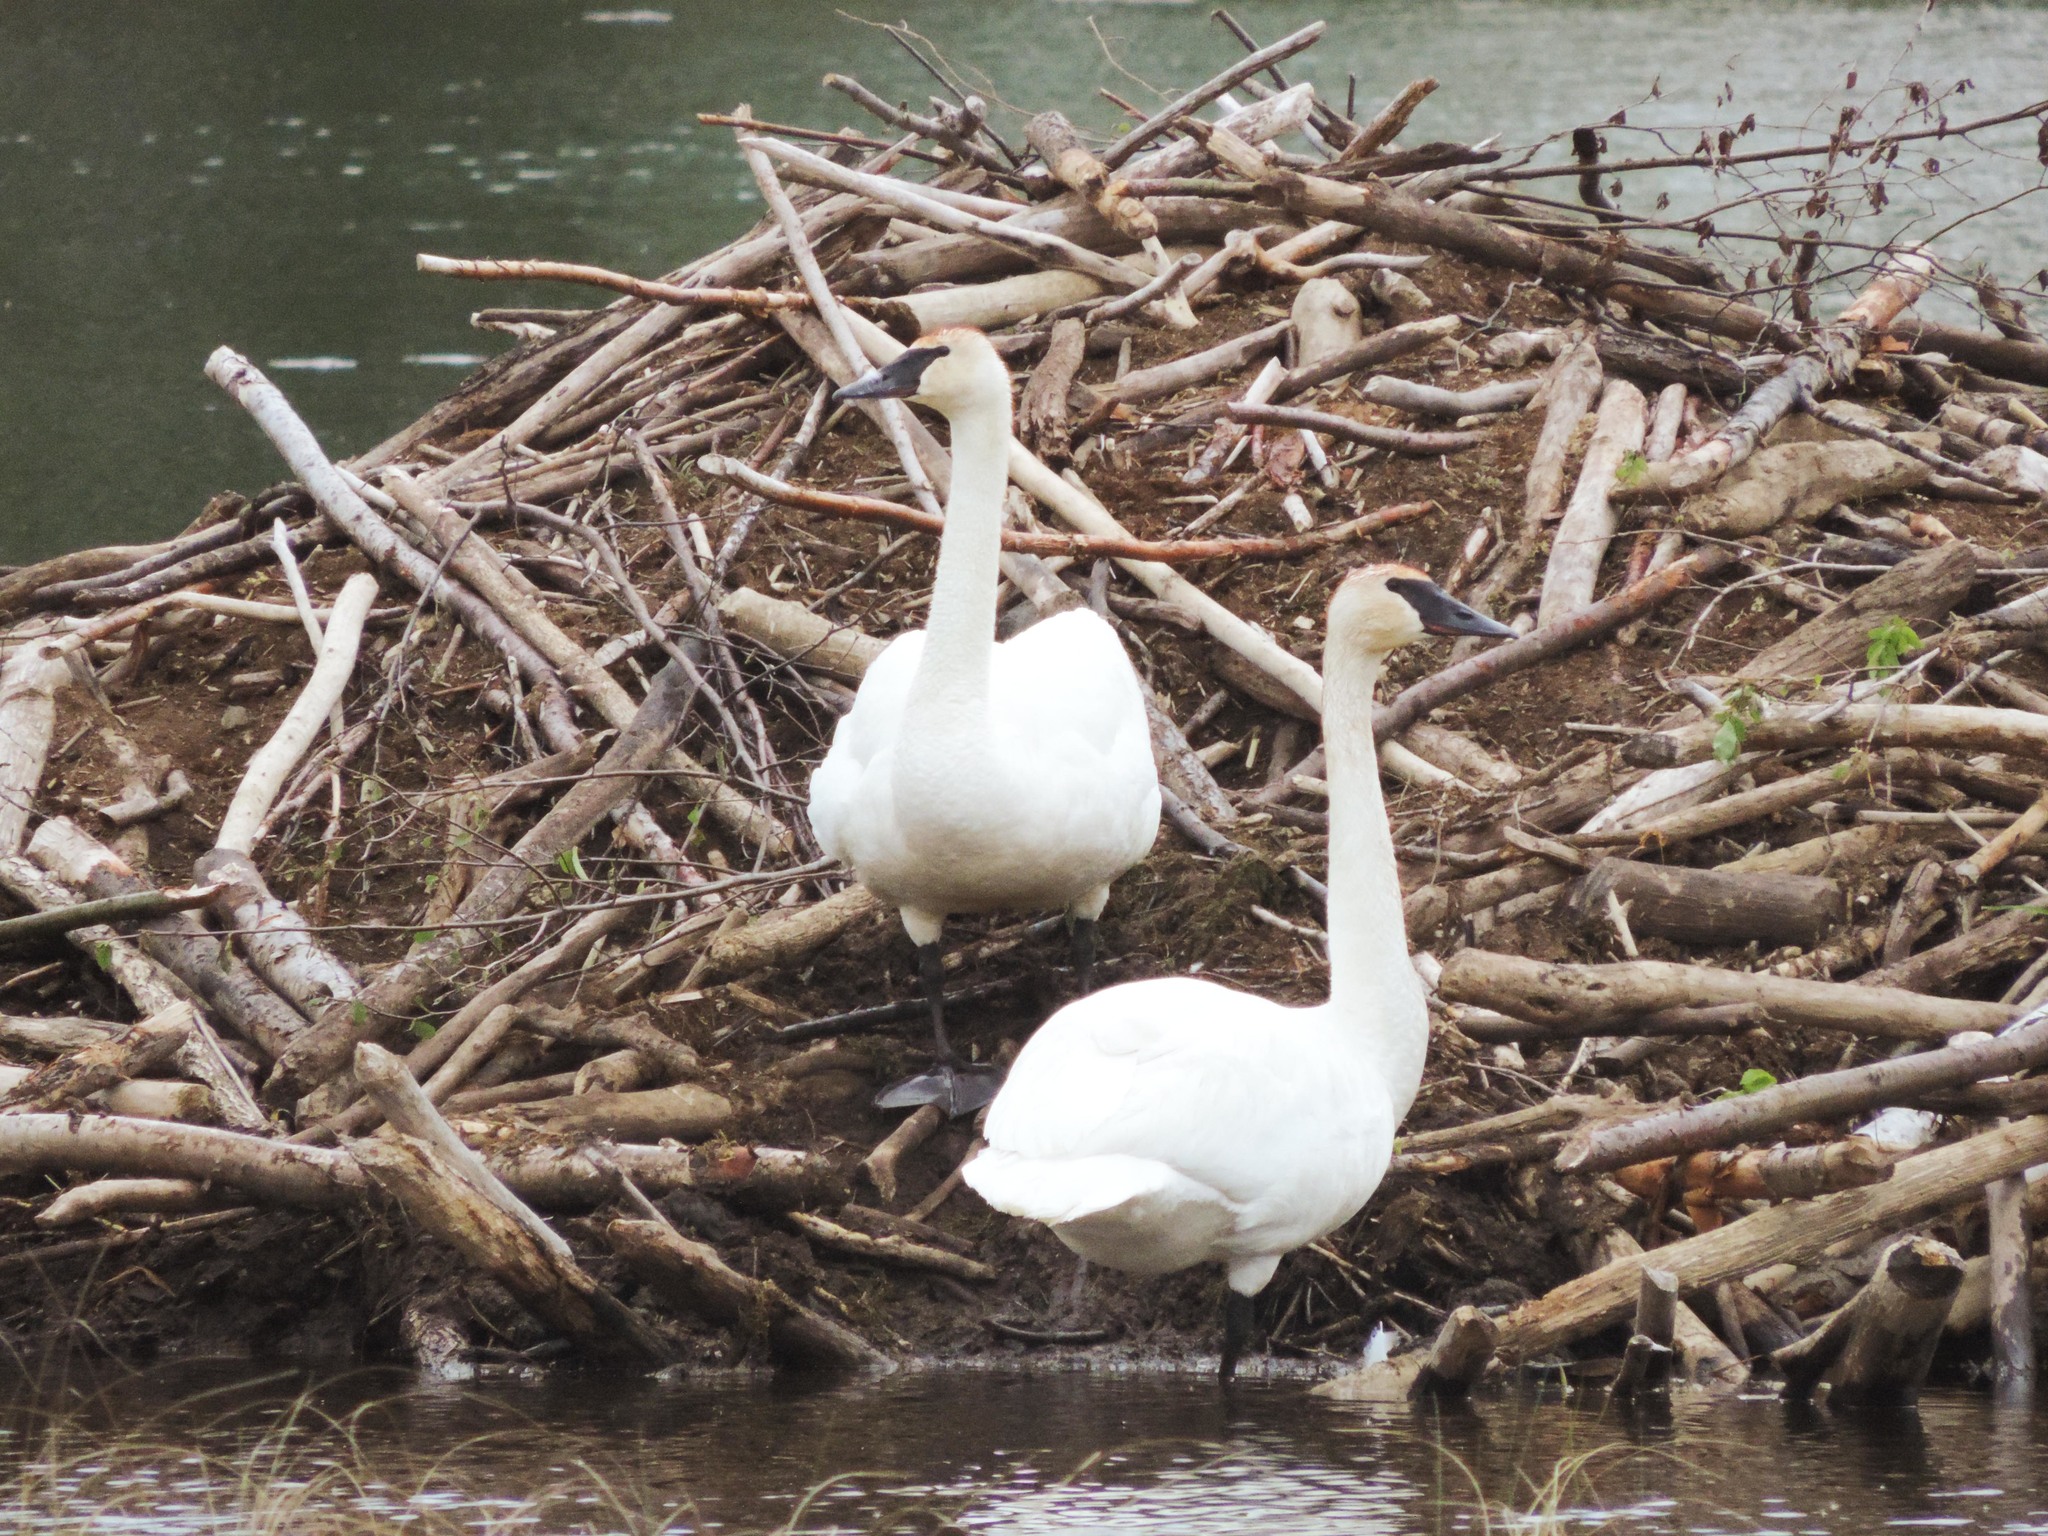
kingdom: Animalia
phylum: Chordata
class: Aves
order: Anseriformes
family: Anatidae
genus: Cygnus
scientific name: Cygnus buccinator
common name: Trumpeter swan
